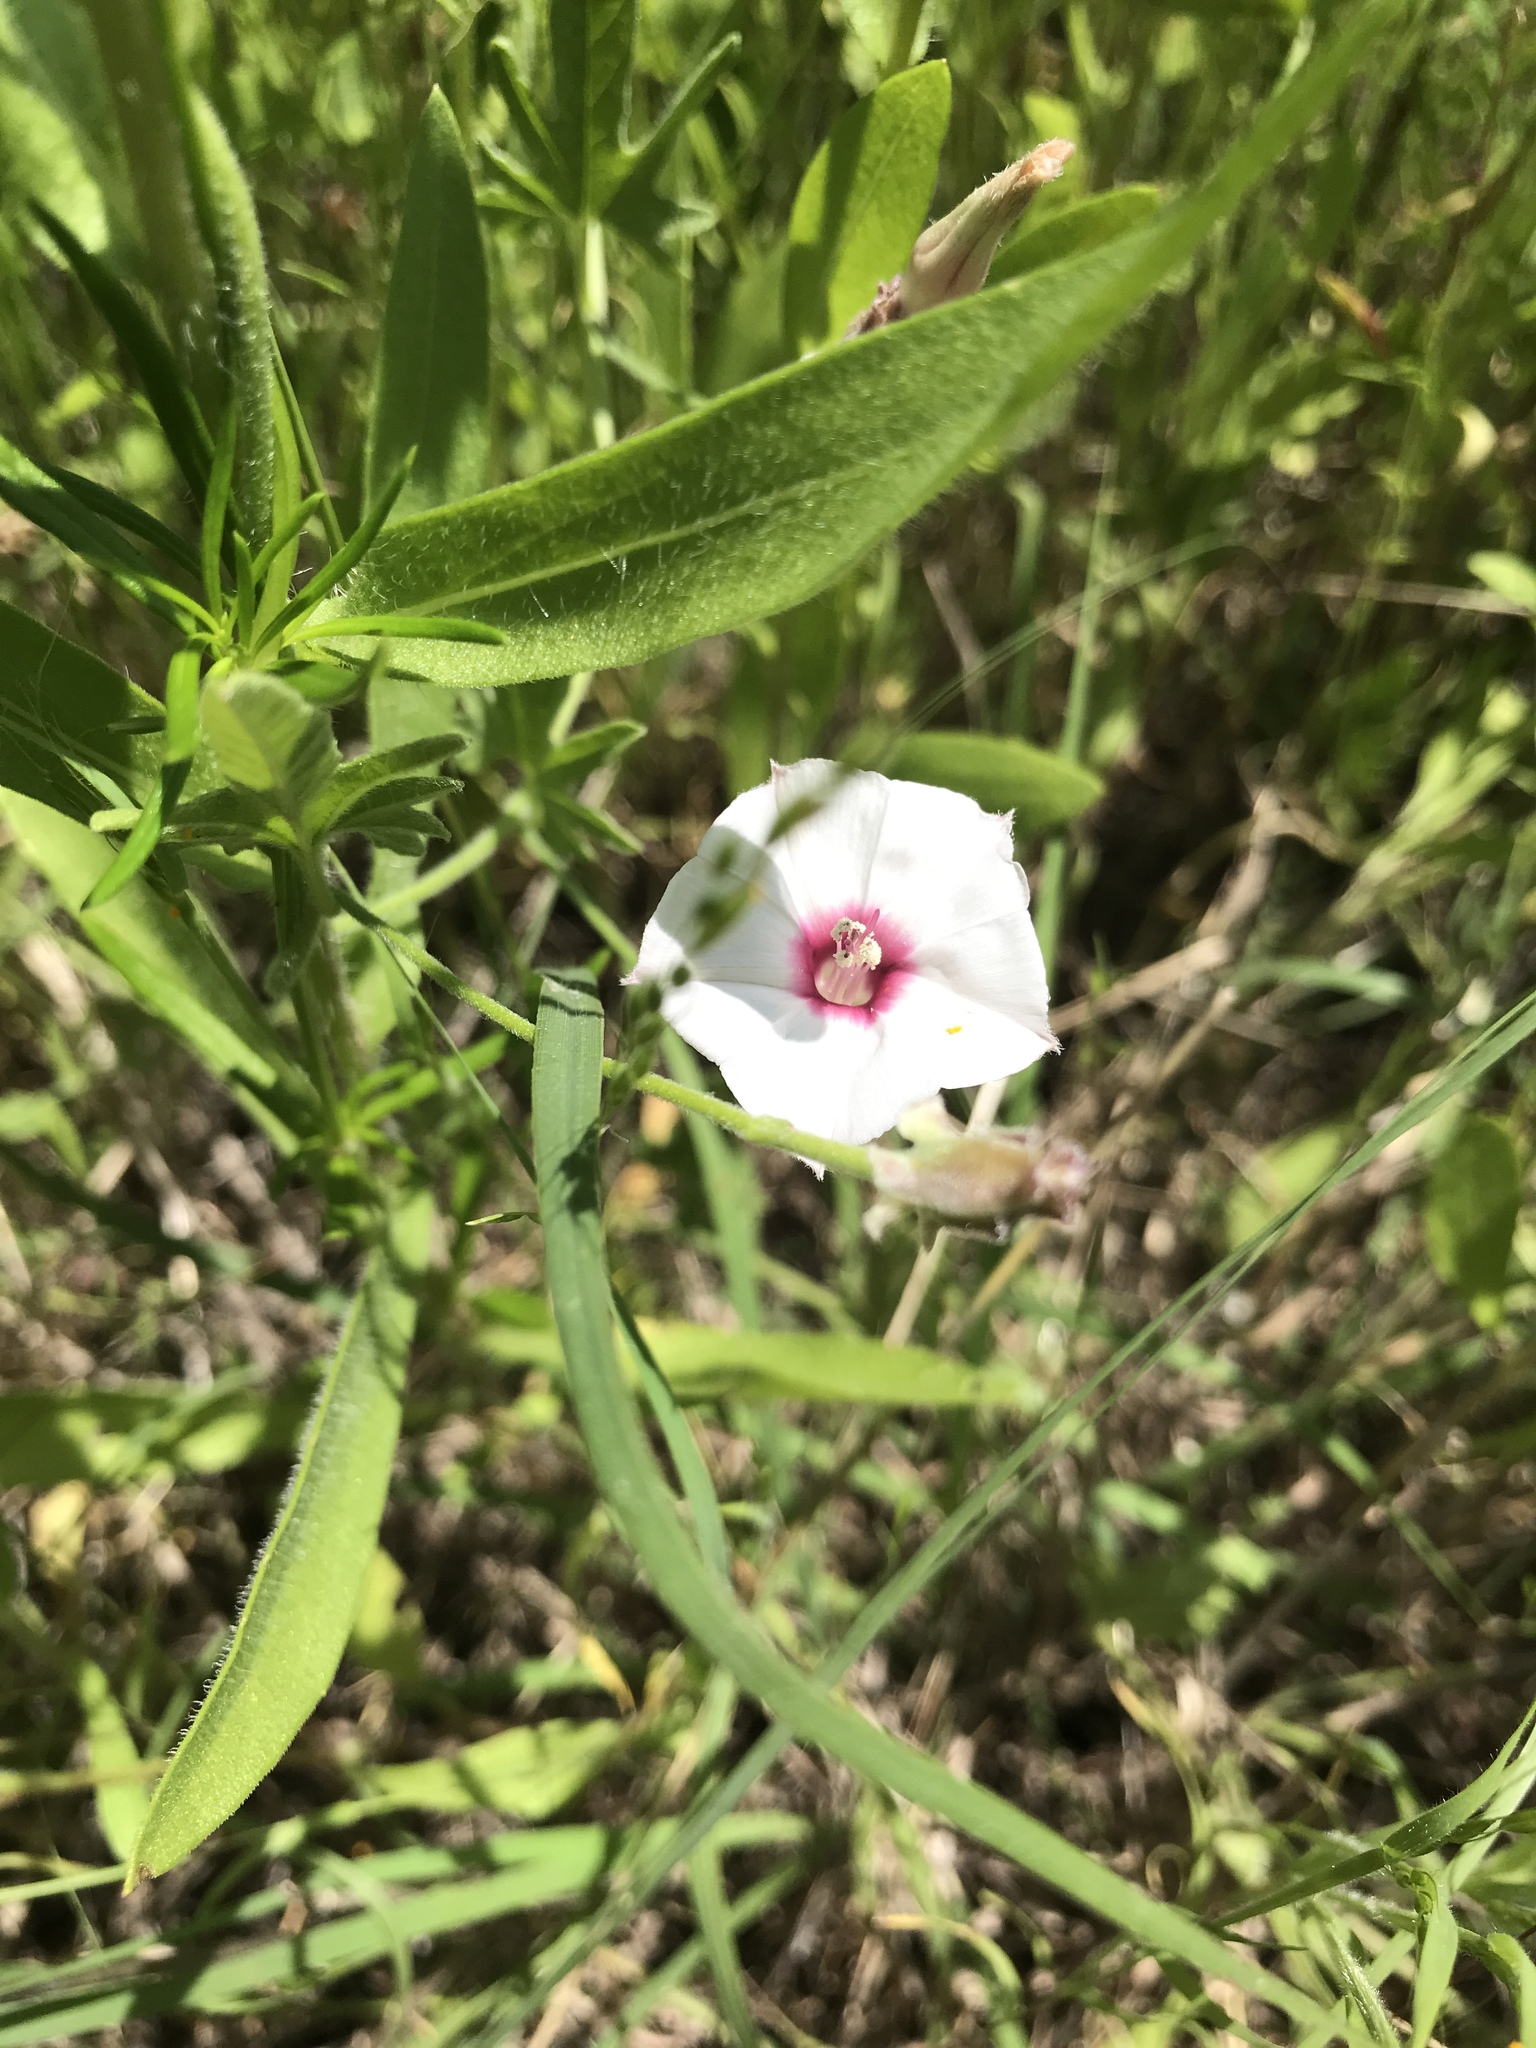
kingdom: Plantae
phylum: Tracheophyta
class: Magnoliopsida
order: Solanales
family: Convolvulaceae
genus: Convolvulus
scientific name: Convolvulus equitans
